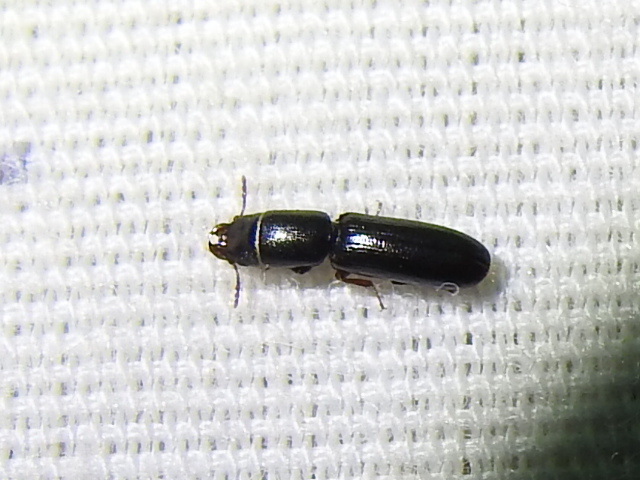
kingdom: Animalia
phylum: Arthropoda
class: Insecta
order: Coleoptera
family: Trogossitidae
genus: Airora
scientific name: Airora cylindrica
